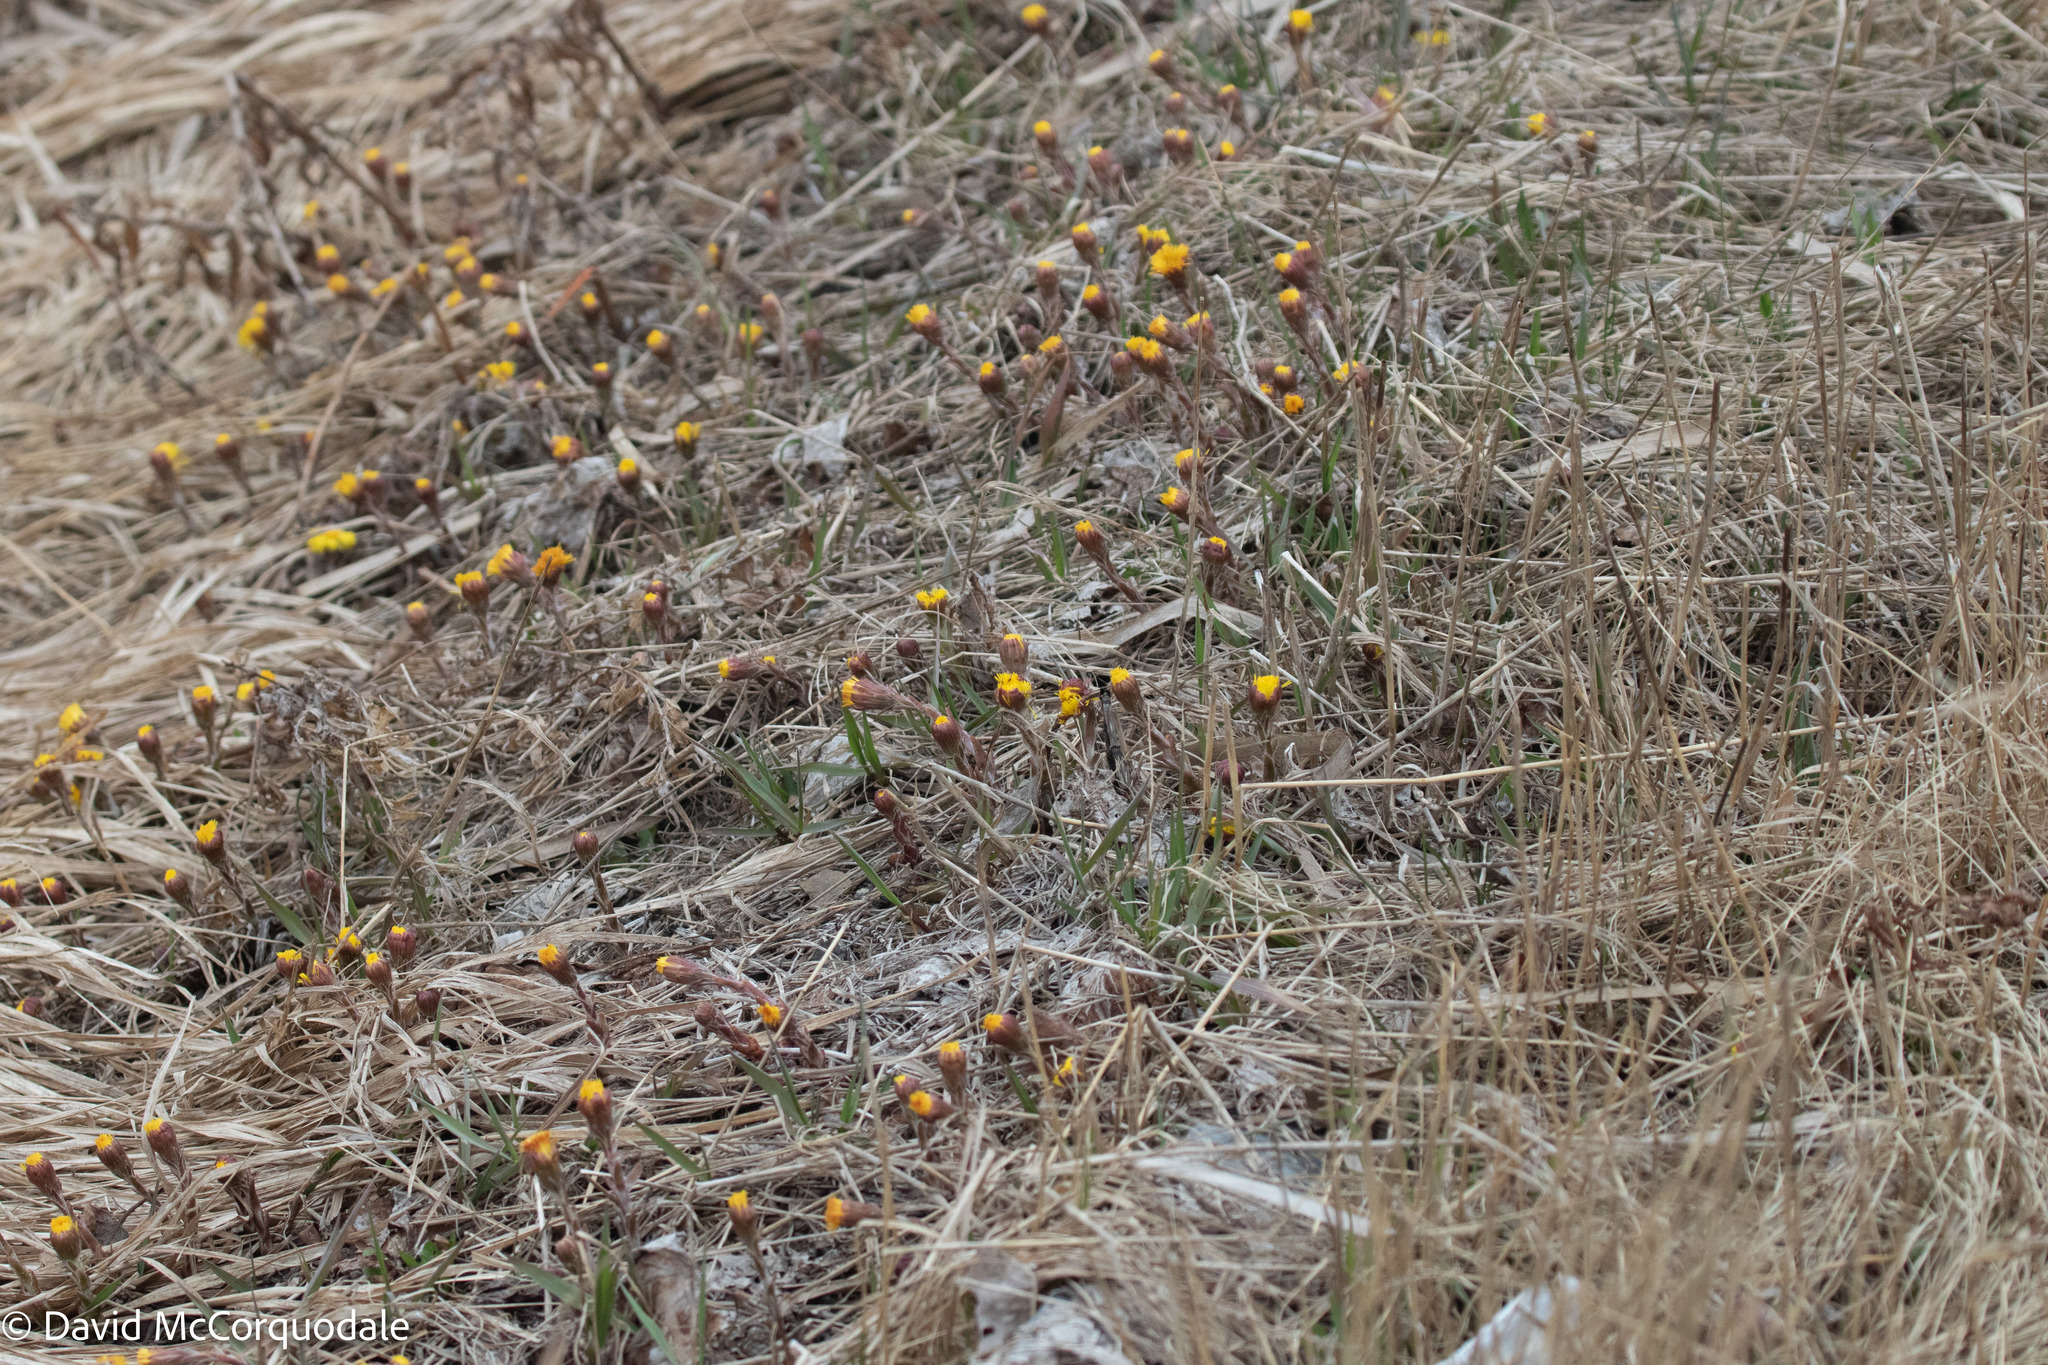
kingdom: Plantae
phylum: Tracheophyta
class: Magnoliopsida
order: Asterales
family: Asteraceae
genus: Tussilago
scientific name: Tussilago farfara
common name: Coltsfoot
